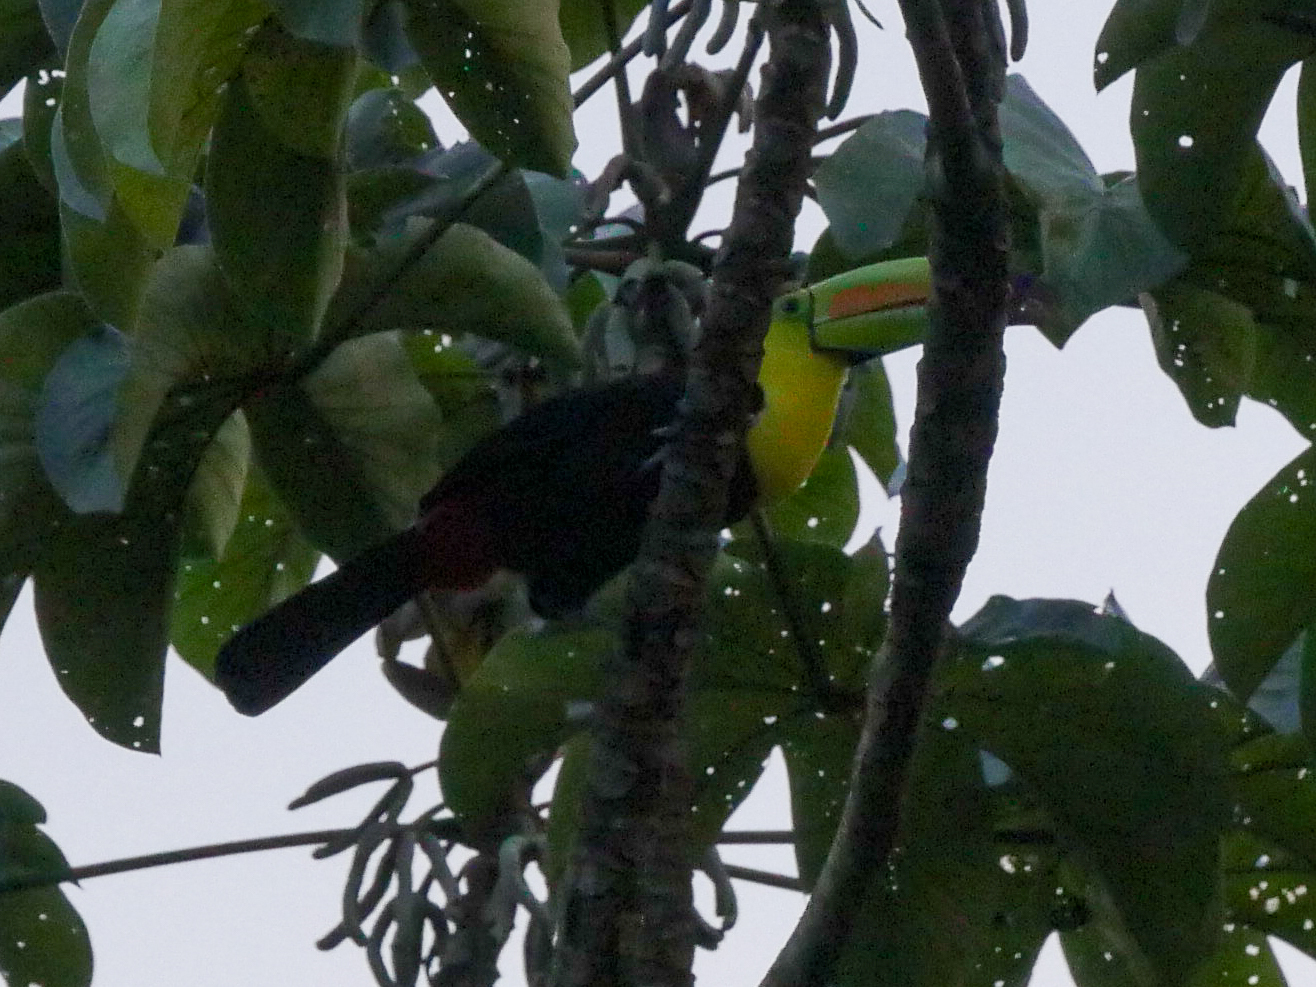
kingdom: Animalia
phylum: Chordata
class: Aves
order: Piciformes
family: Ramphastidae
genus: Ramphastos
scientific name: Ramphastos sulfuratus
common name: Keel-billed toucan
